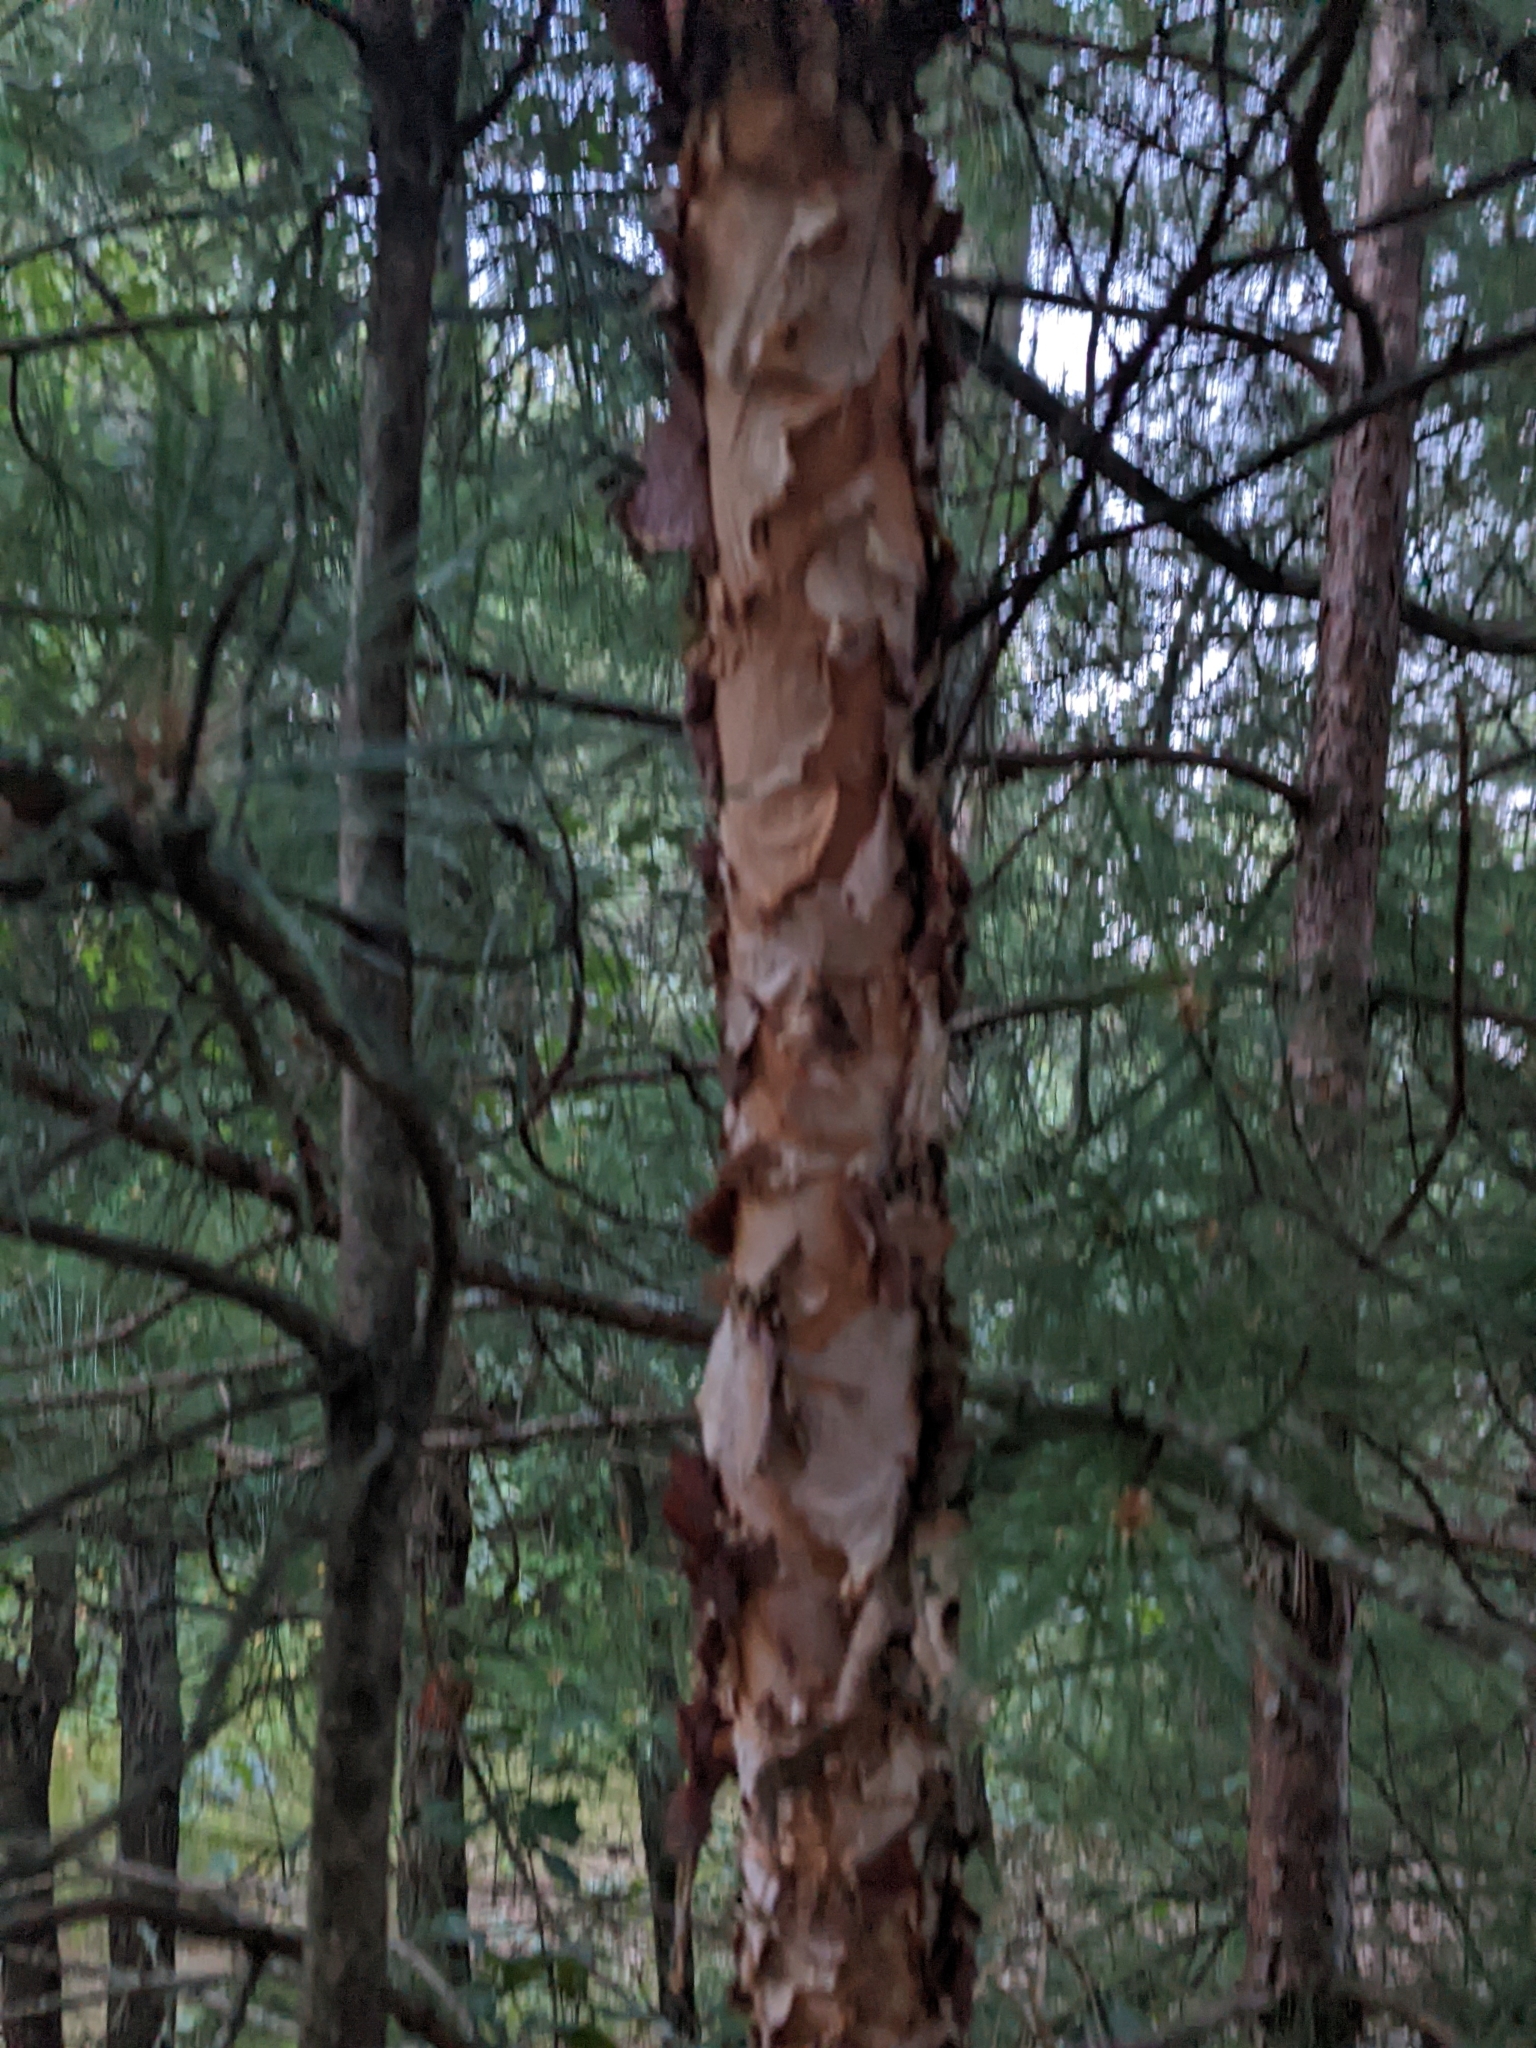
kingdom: Plantae
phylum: Tracheophyta
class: Magnoliopsida
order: Fagales
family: Betulaceae
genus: Betula
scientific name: Betula nigra
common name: Black birch
